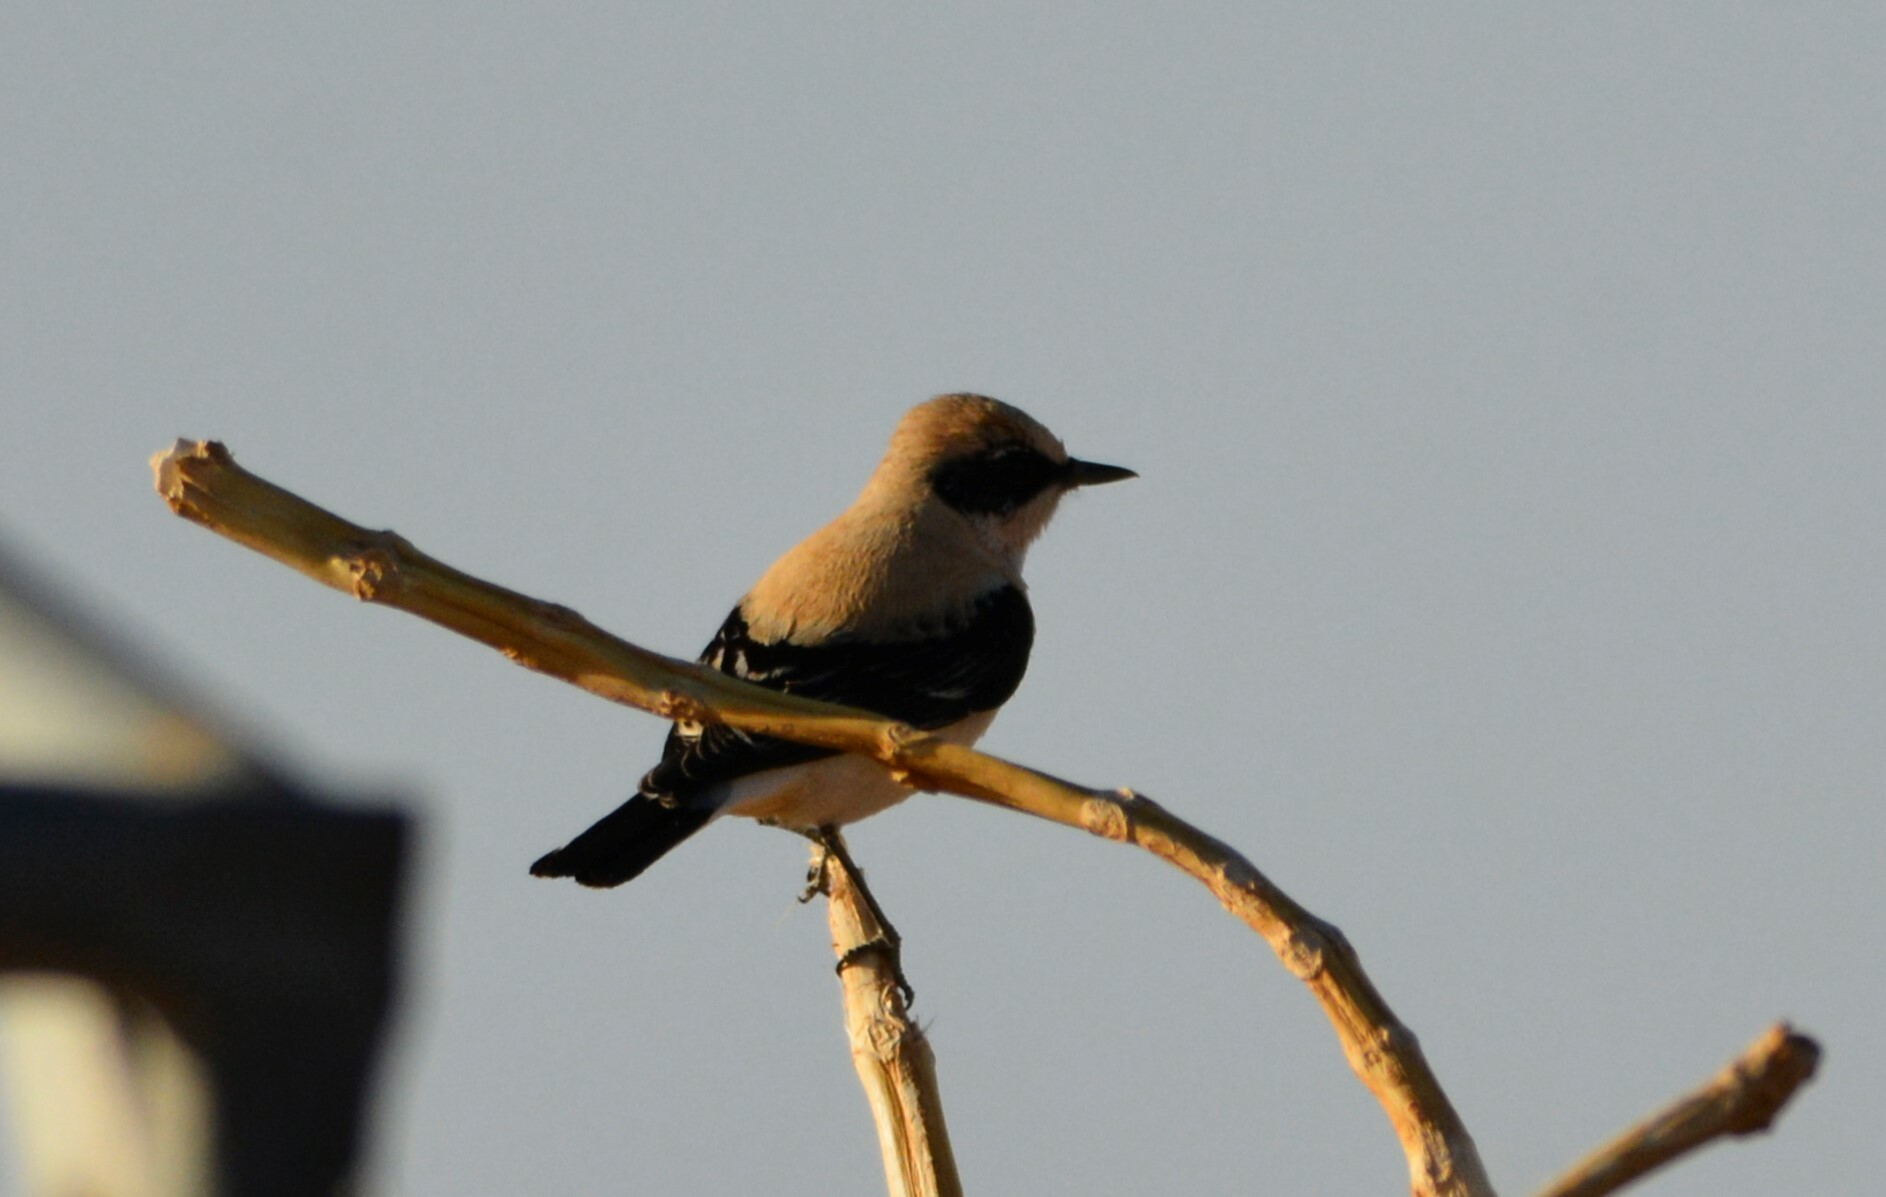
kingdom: Animalia
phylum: Chordata
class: Aves
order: Passeriformes
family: Muscicapidae
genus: Oenanthe
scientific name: Oenanthe hispanica
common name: Black-eared wheatear
